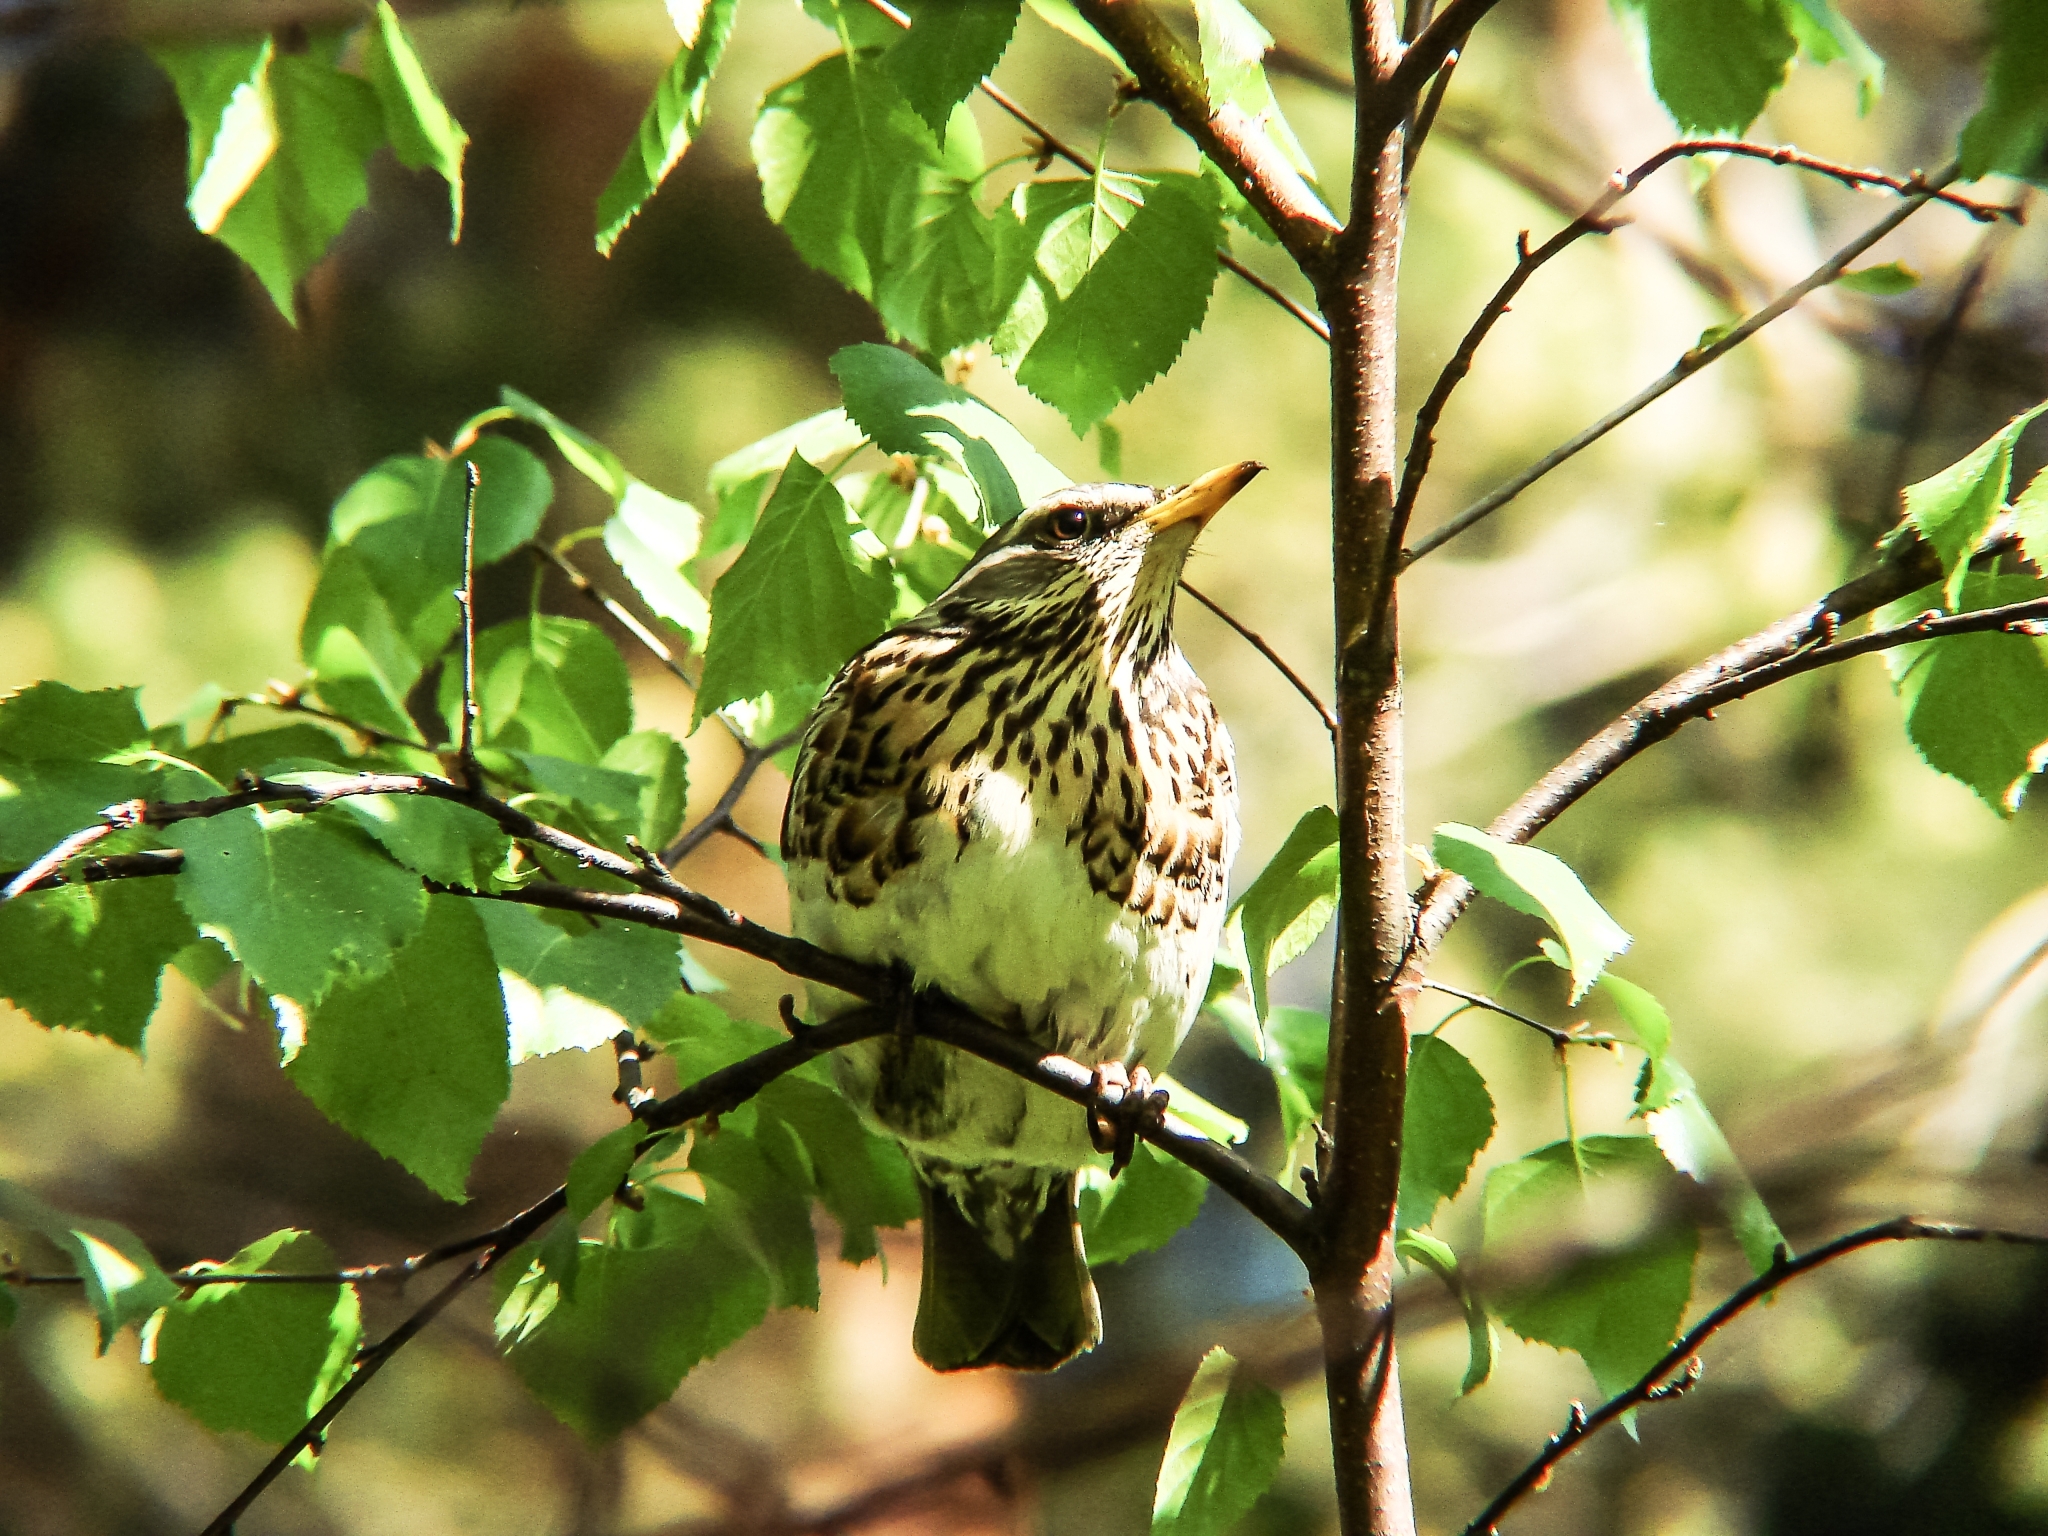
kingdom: Plantae
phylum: Tracheophyta
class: Magnoliopsida
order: Fagales
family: Betulaceae
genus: Betula
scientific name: Betula pendula
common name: Silver birch
